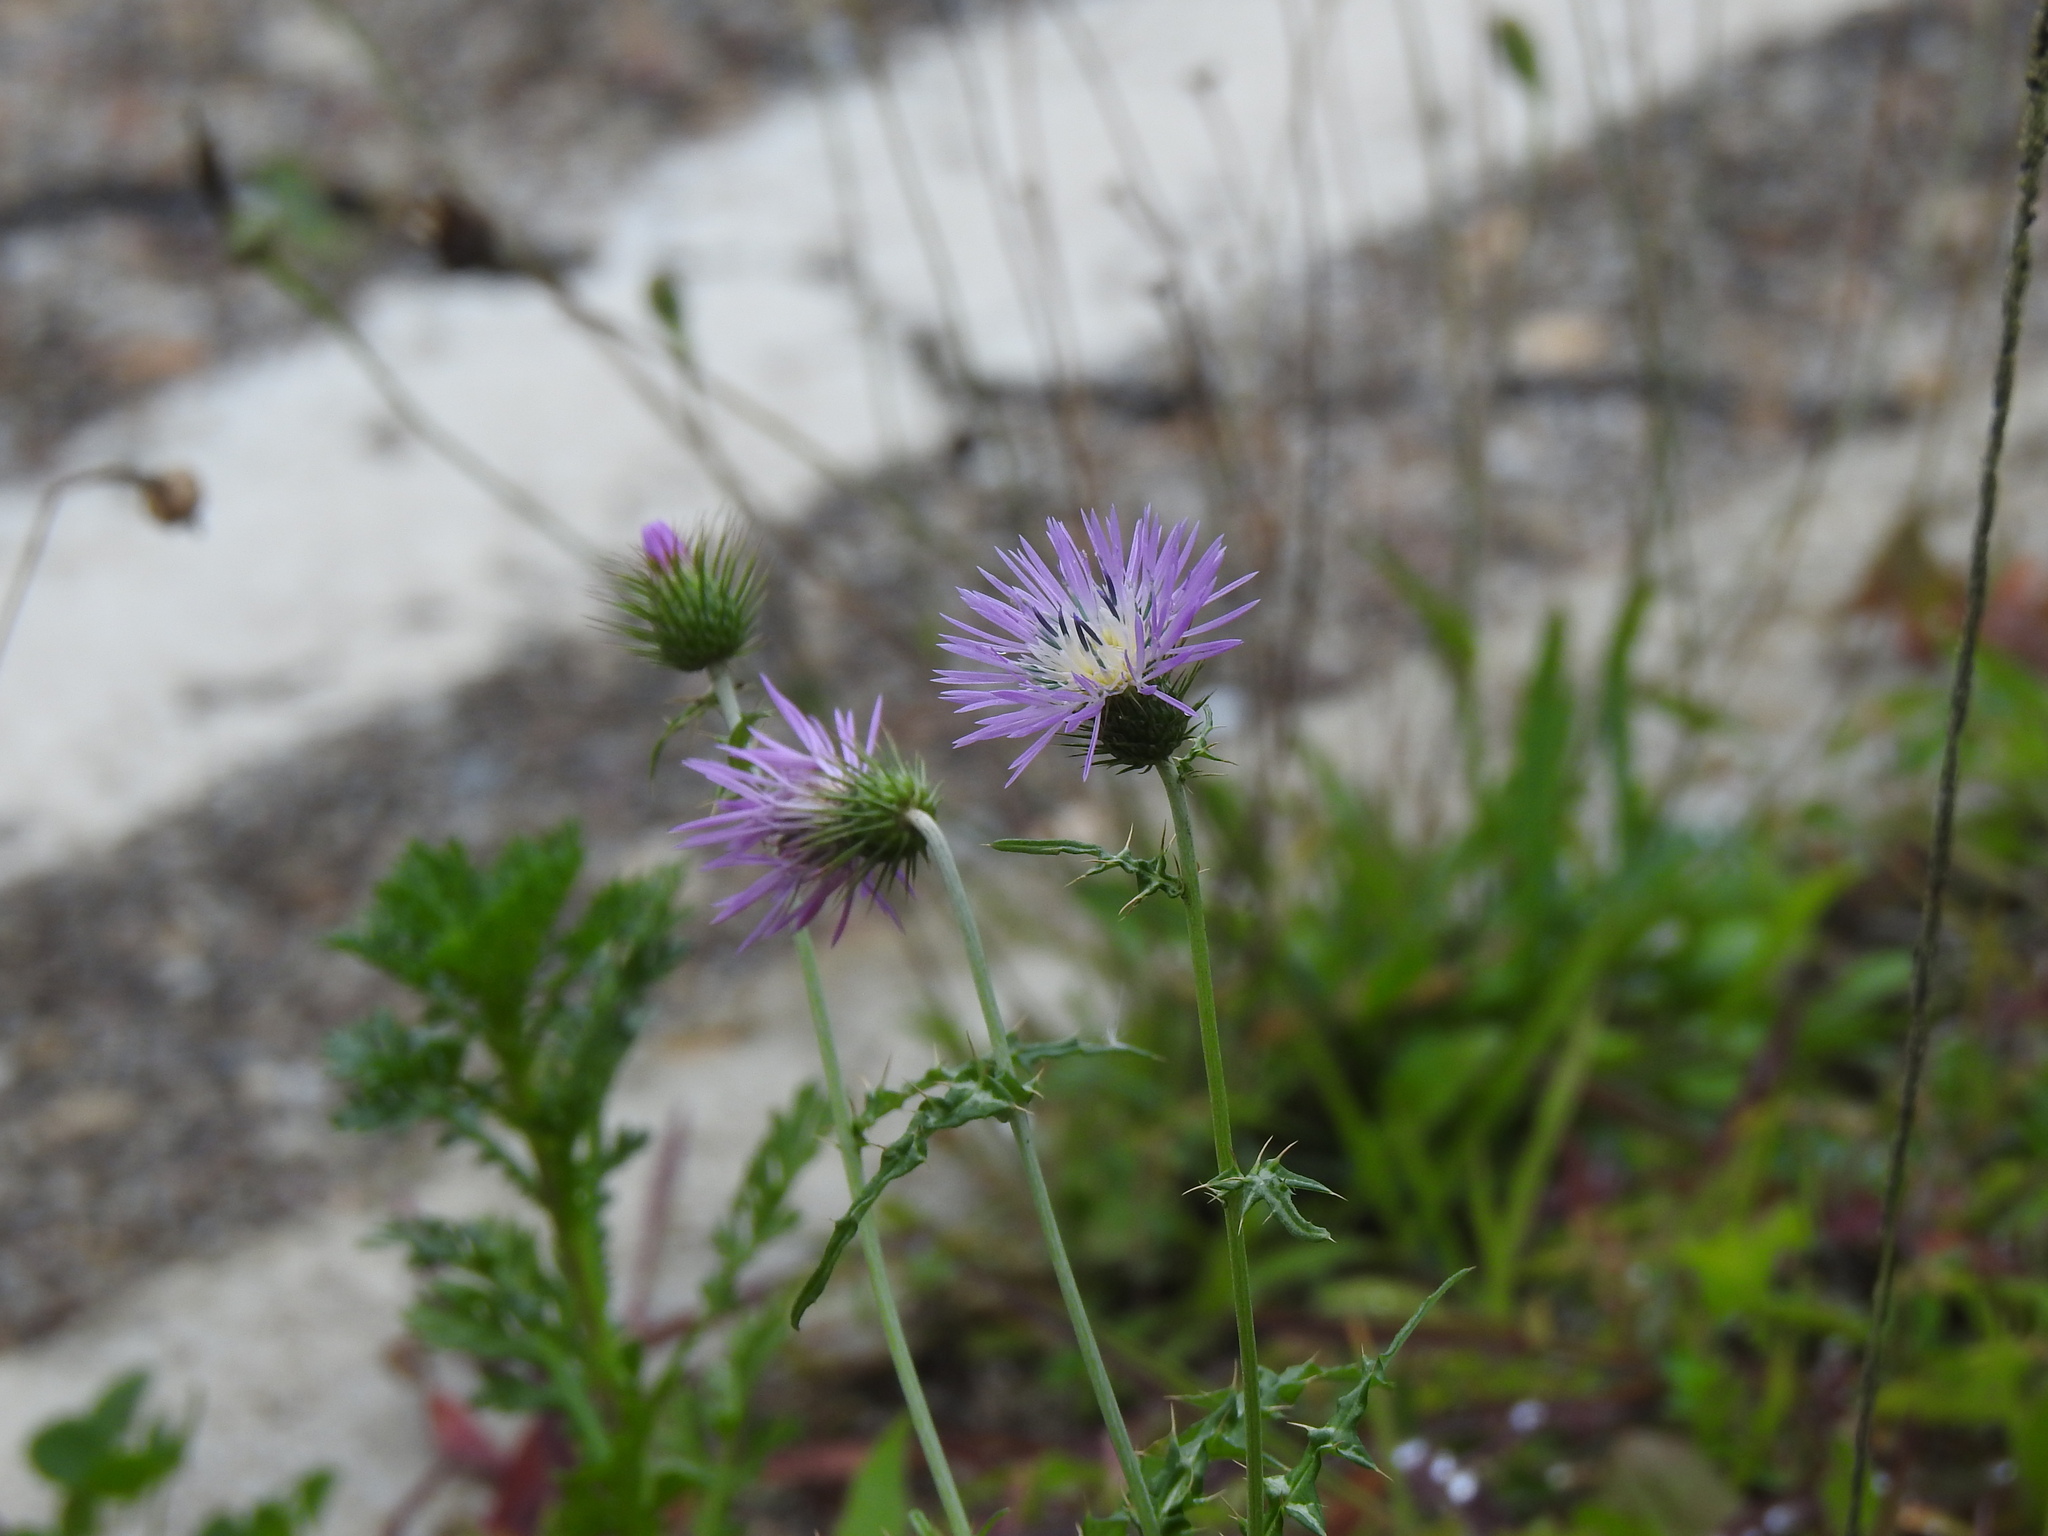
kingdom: Plantae
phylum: Tracheophyta
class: Magnoliopsida
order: Asterales
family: Asteraceae
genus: Galactites
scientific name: Galactites tomentosa
